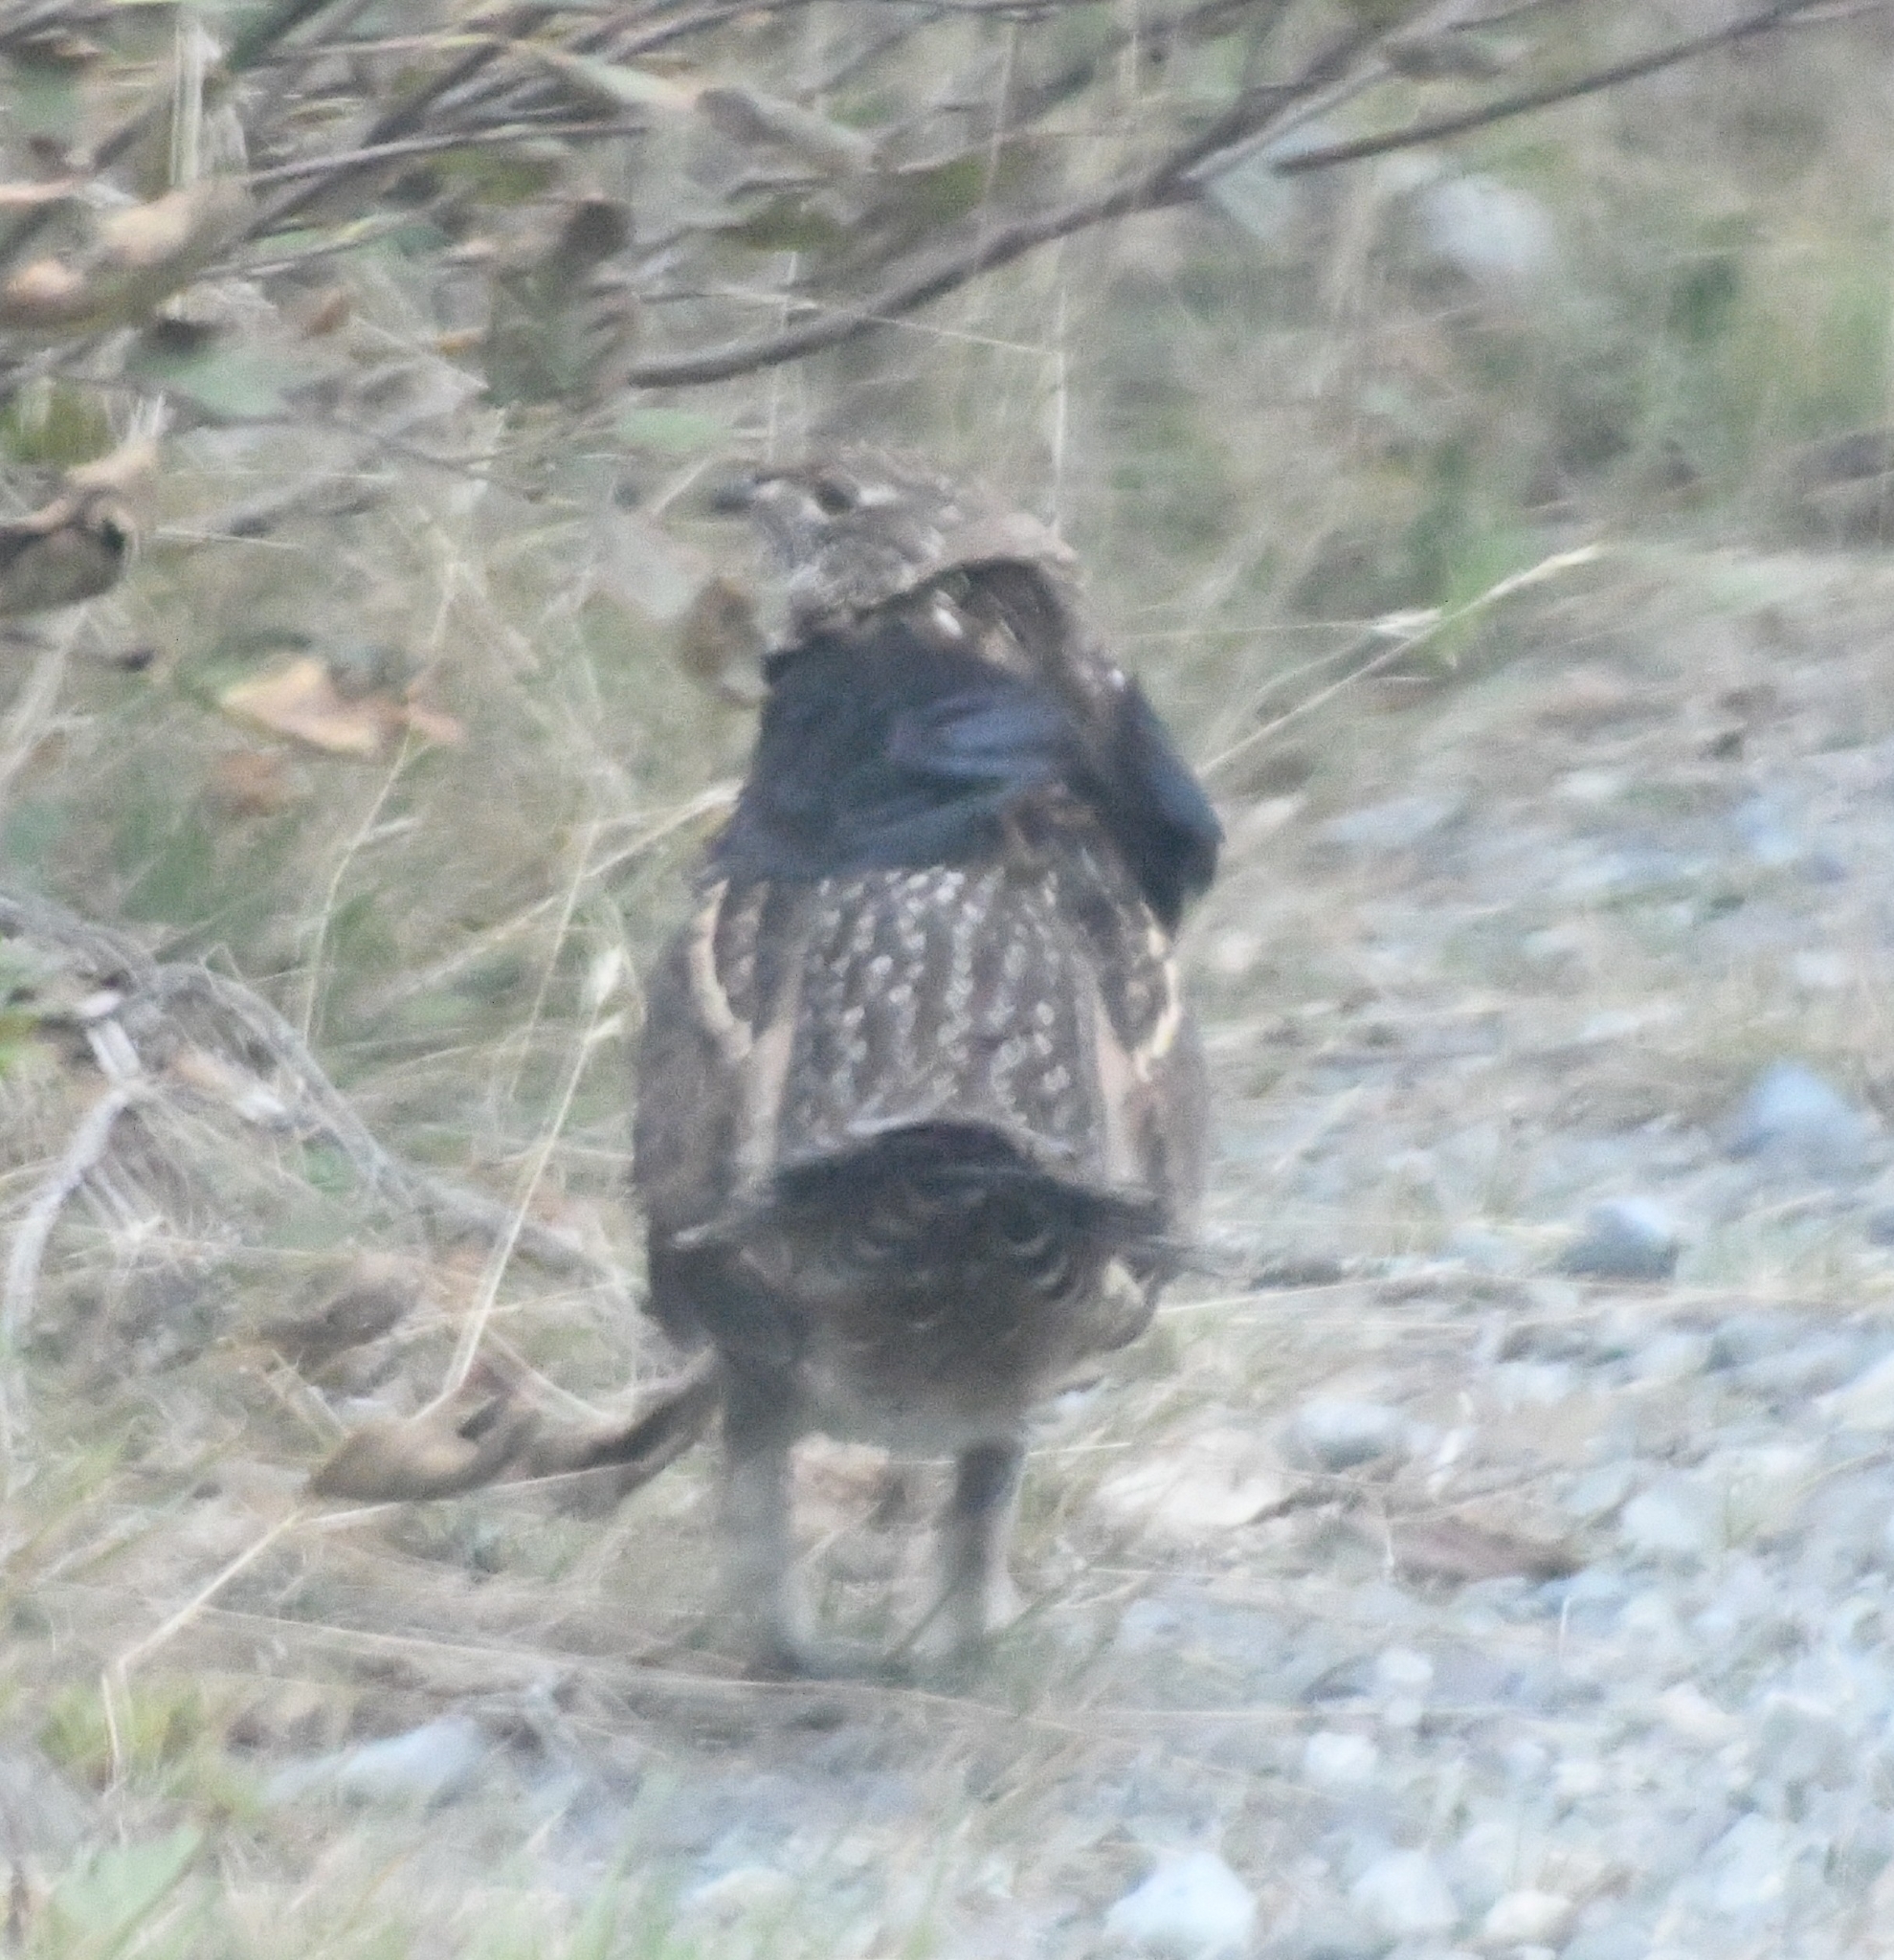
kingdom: Animalia
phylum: Chordata
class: Aves
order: Galliformes
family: Phasianidae
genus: Bonasa
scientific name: Bonasa umbellus
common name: Ruffed grouse
